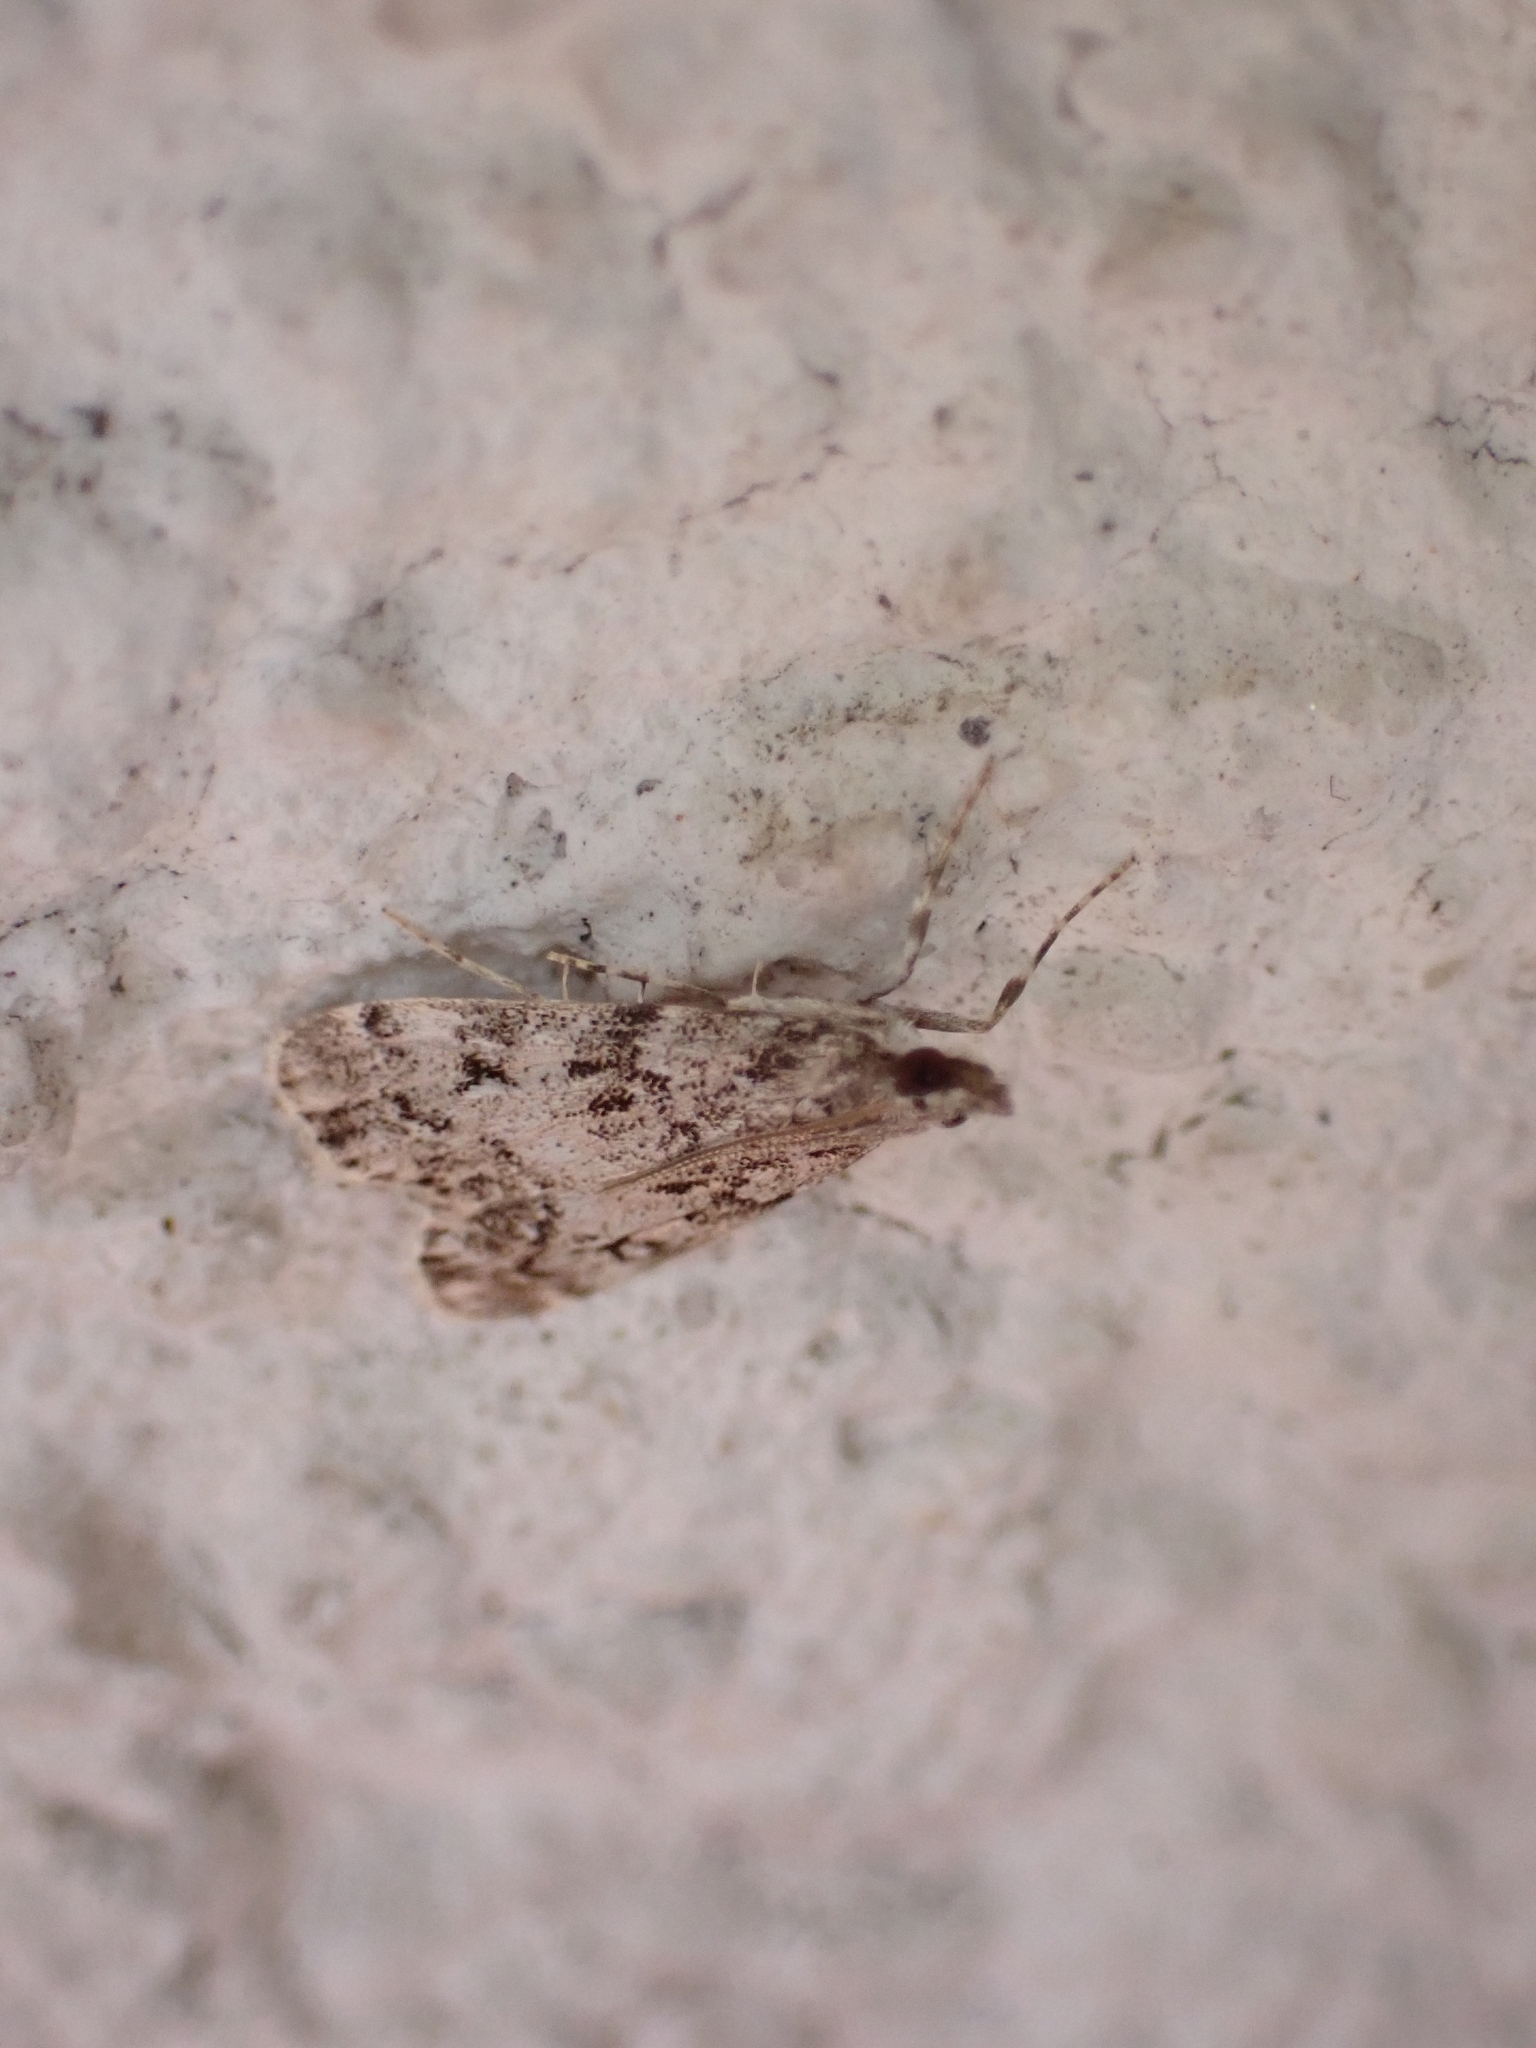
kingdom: Animalia
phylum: Arthropoda
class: Insecta
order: Lepidoptera
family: Crambidae
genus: Eudonia
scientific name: Eudonia lacustrata
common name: Little grey
